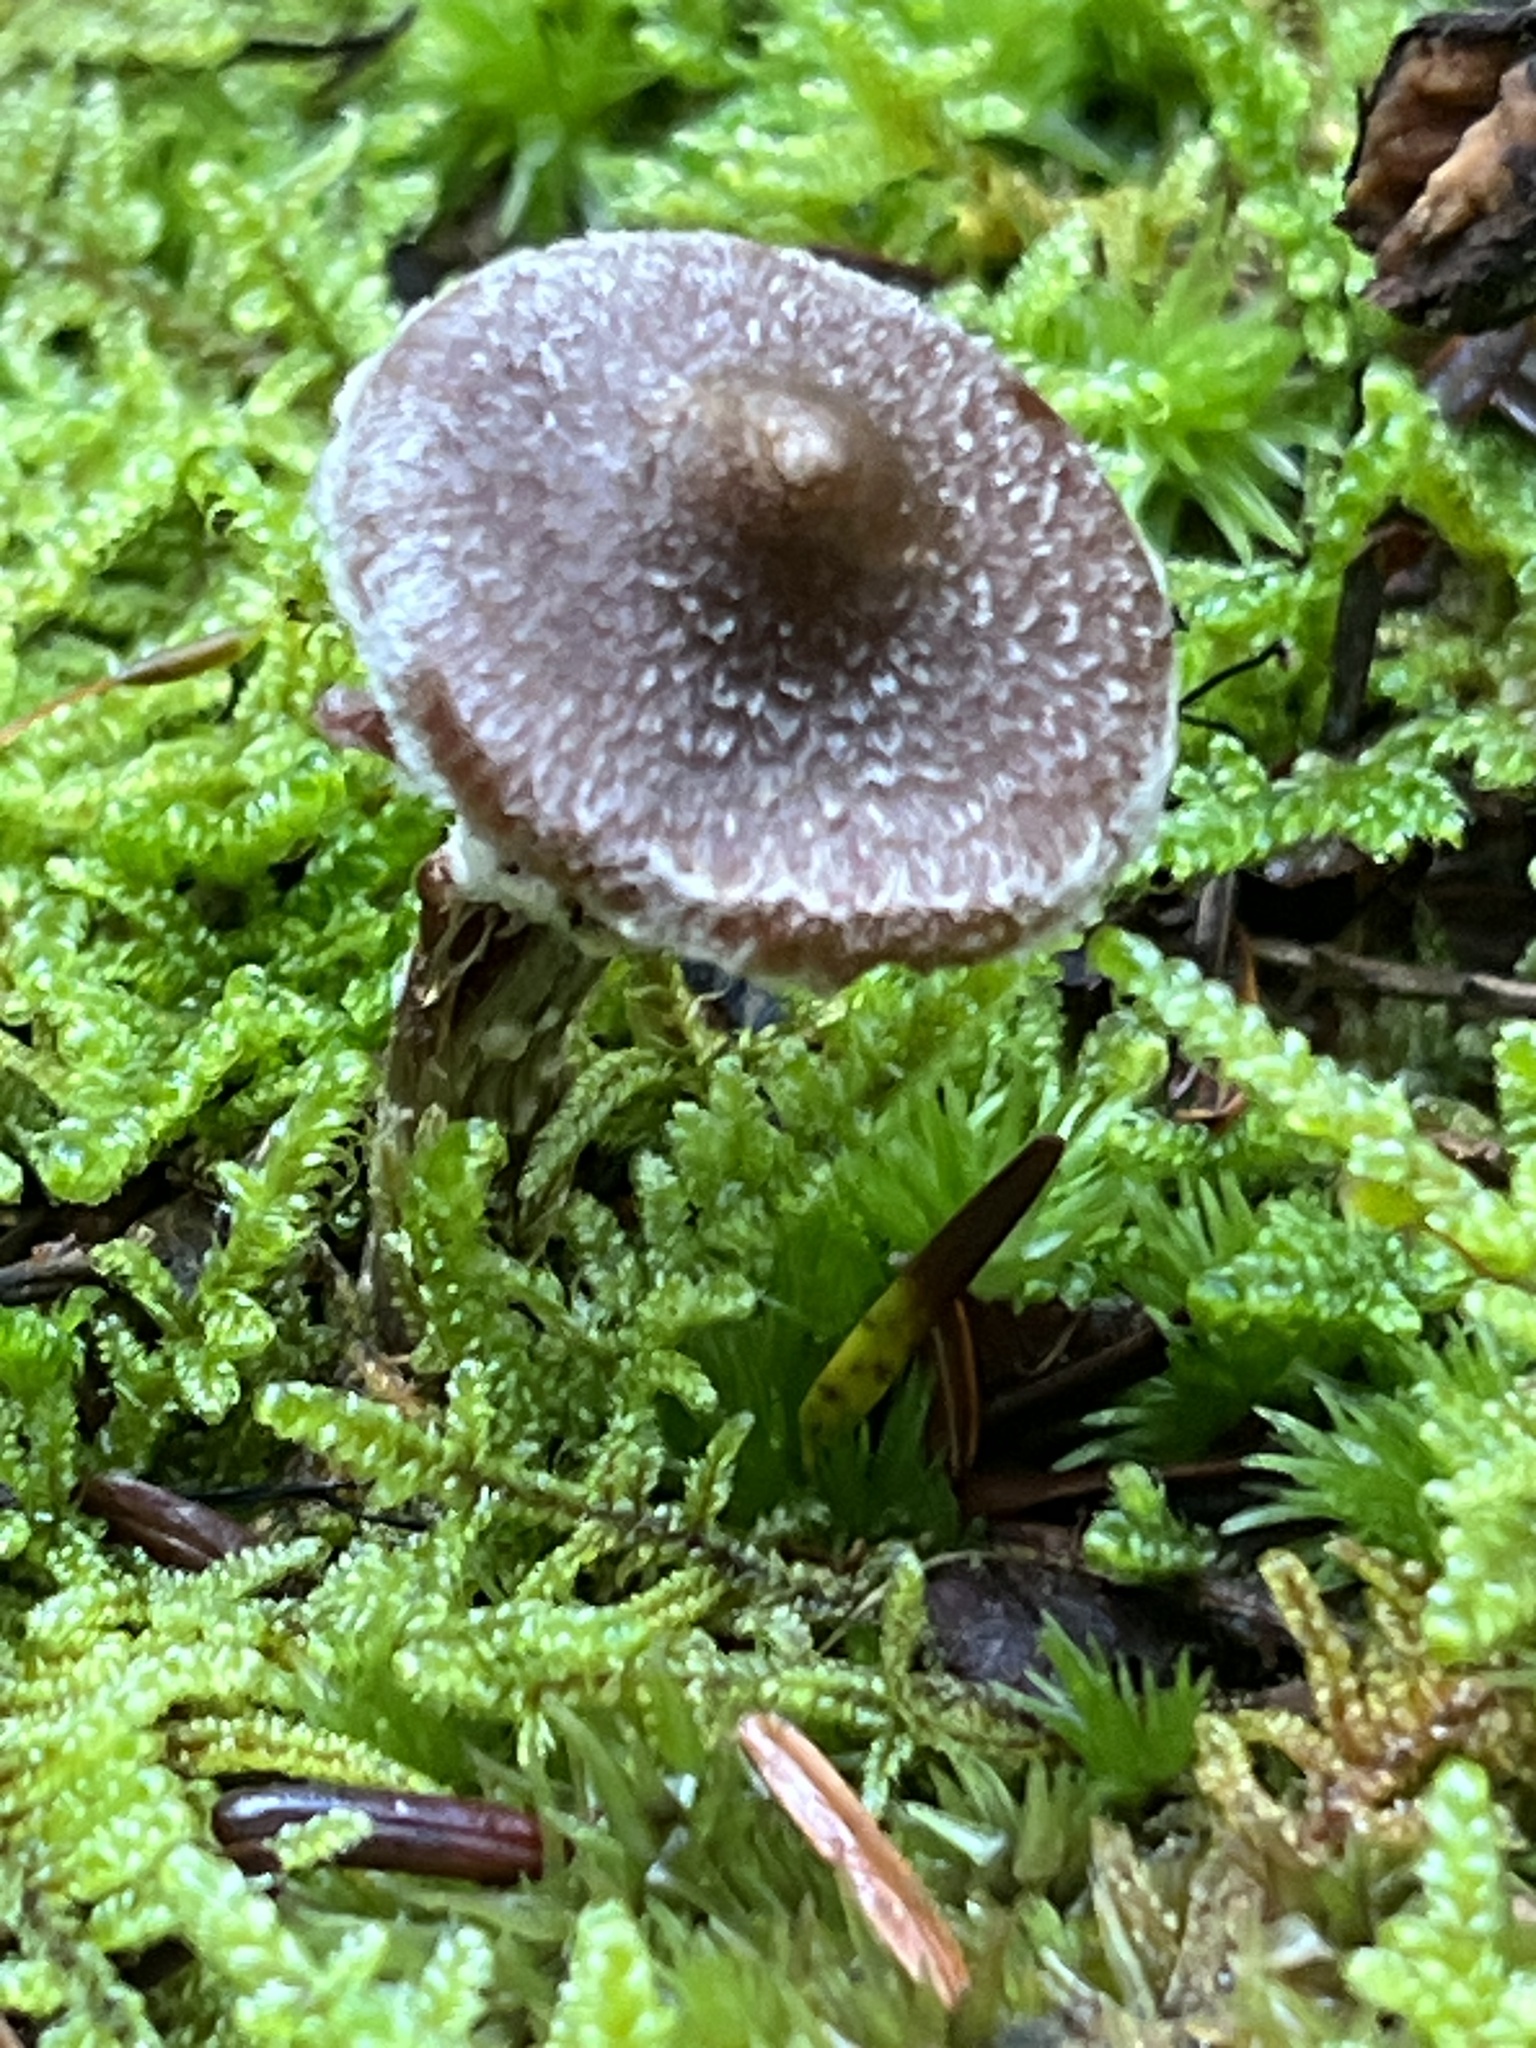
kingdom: Fungi
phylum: Basidiomycota
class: Agaricomycetes
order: Agaricales
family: Cortinariaceae
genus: Cortinarius
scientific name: Cortinarius flexipes
